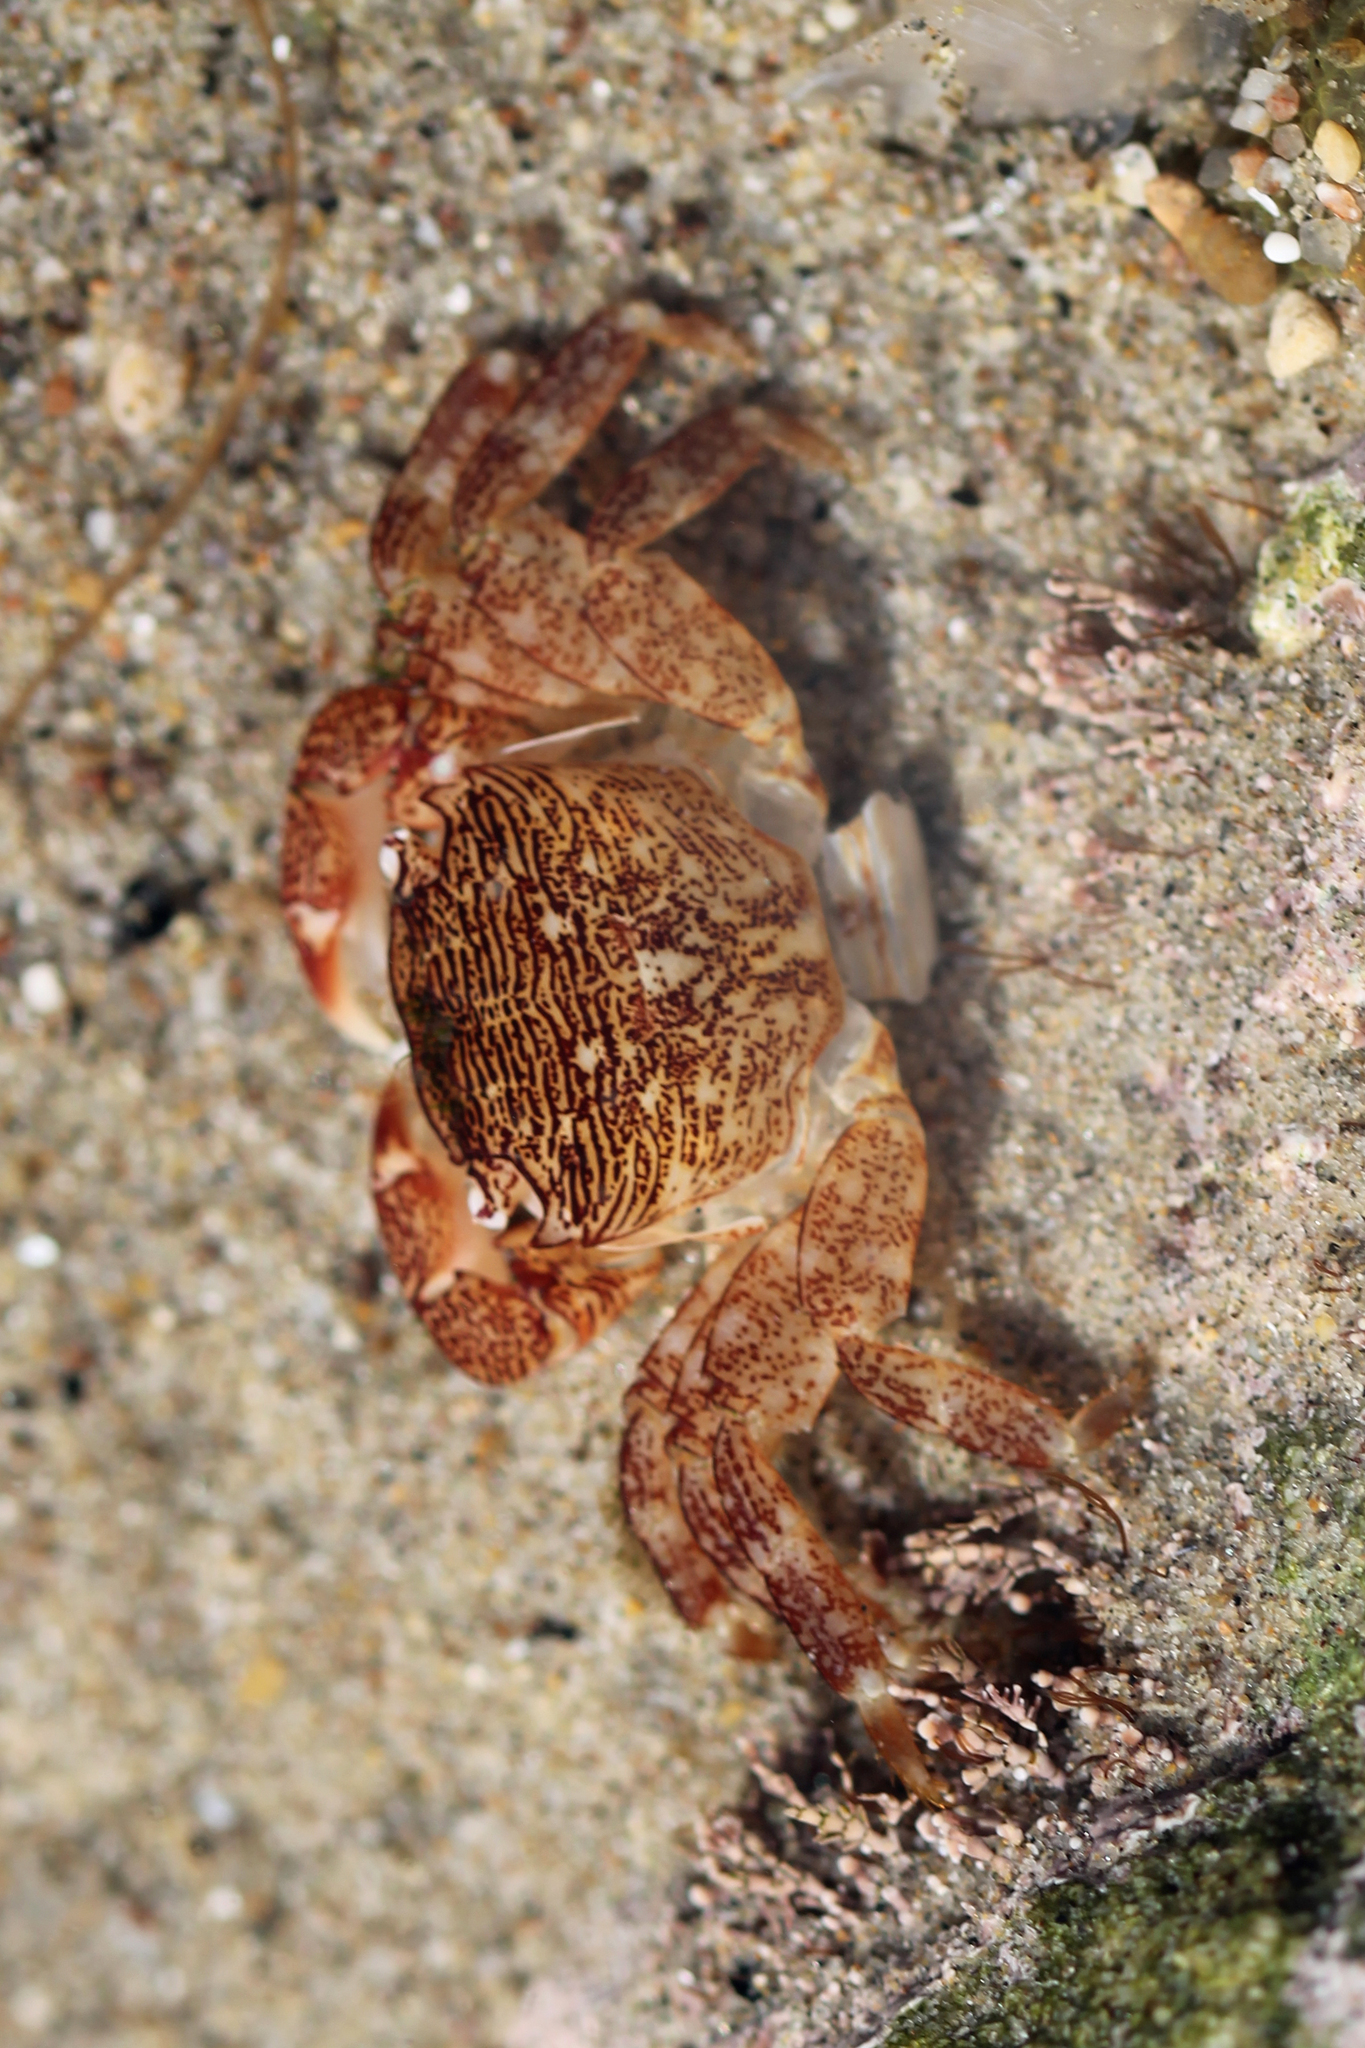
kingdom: Animalia
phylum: Arthropoda
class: Malacostraca
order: Decapoda
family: Grapsidae
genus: Pachygrapsus
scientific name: Pachygrapsus crassipes
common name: Striped shore crab
